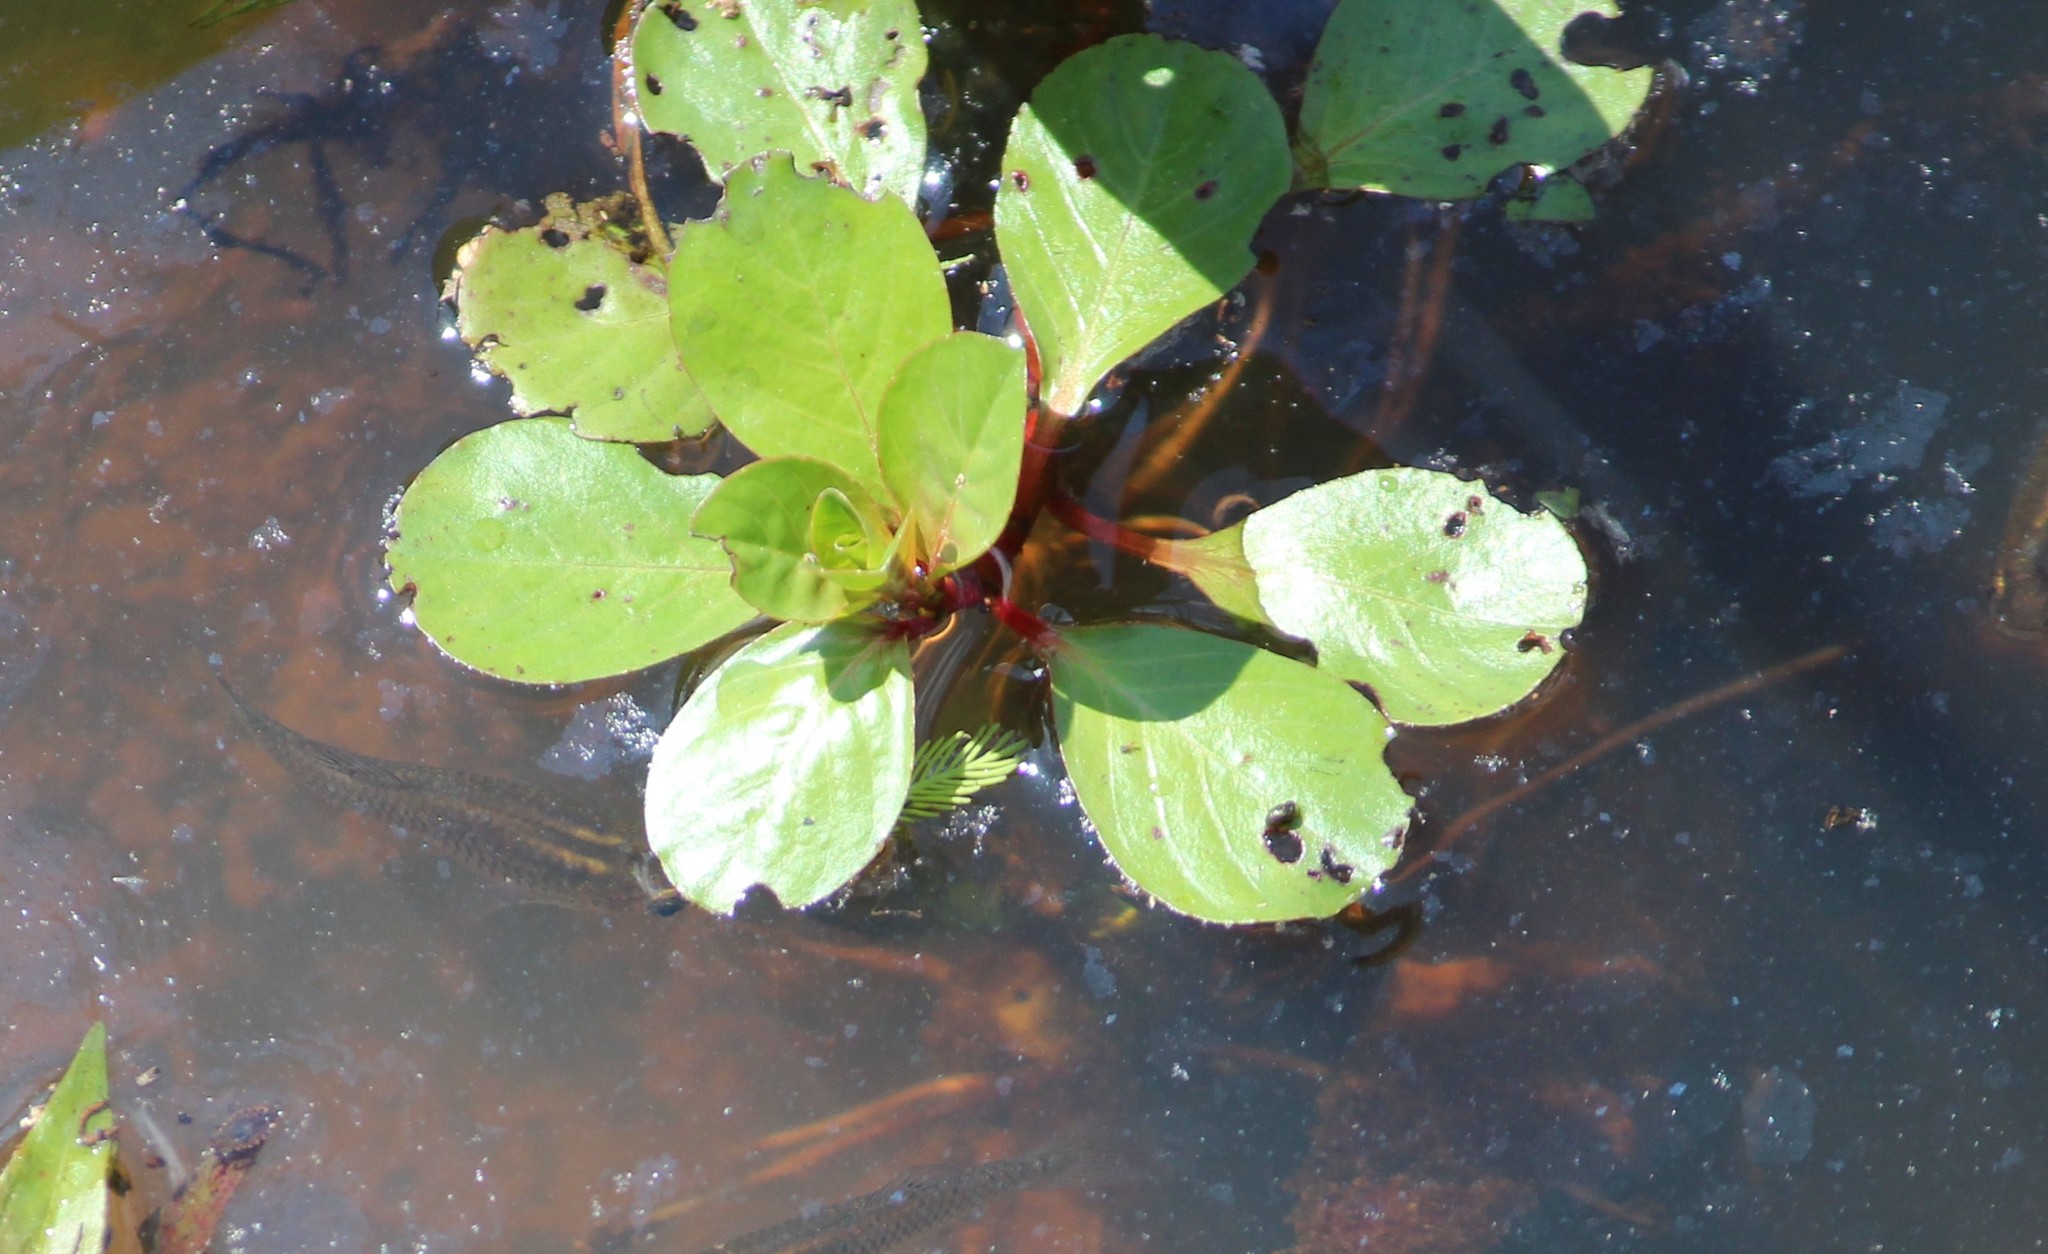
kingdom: Plantae
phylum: Tracheophyta
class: Magnoliopsida
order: Myrtales
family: Onagraceae
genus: Ludwigia
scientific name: Ludwigia peploides
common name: Floating primrose-willow
